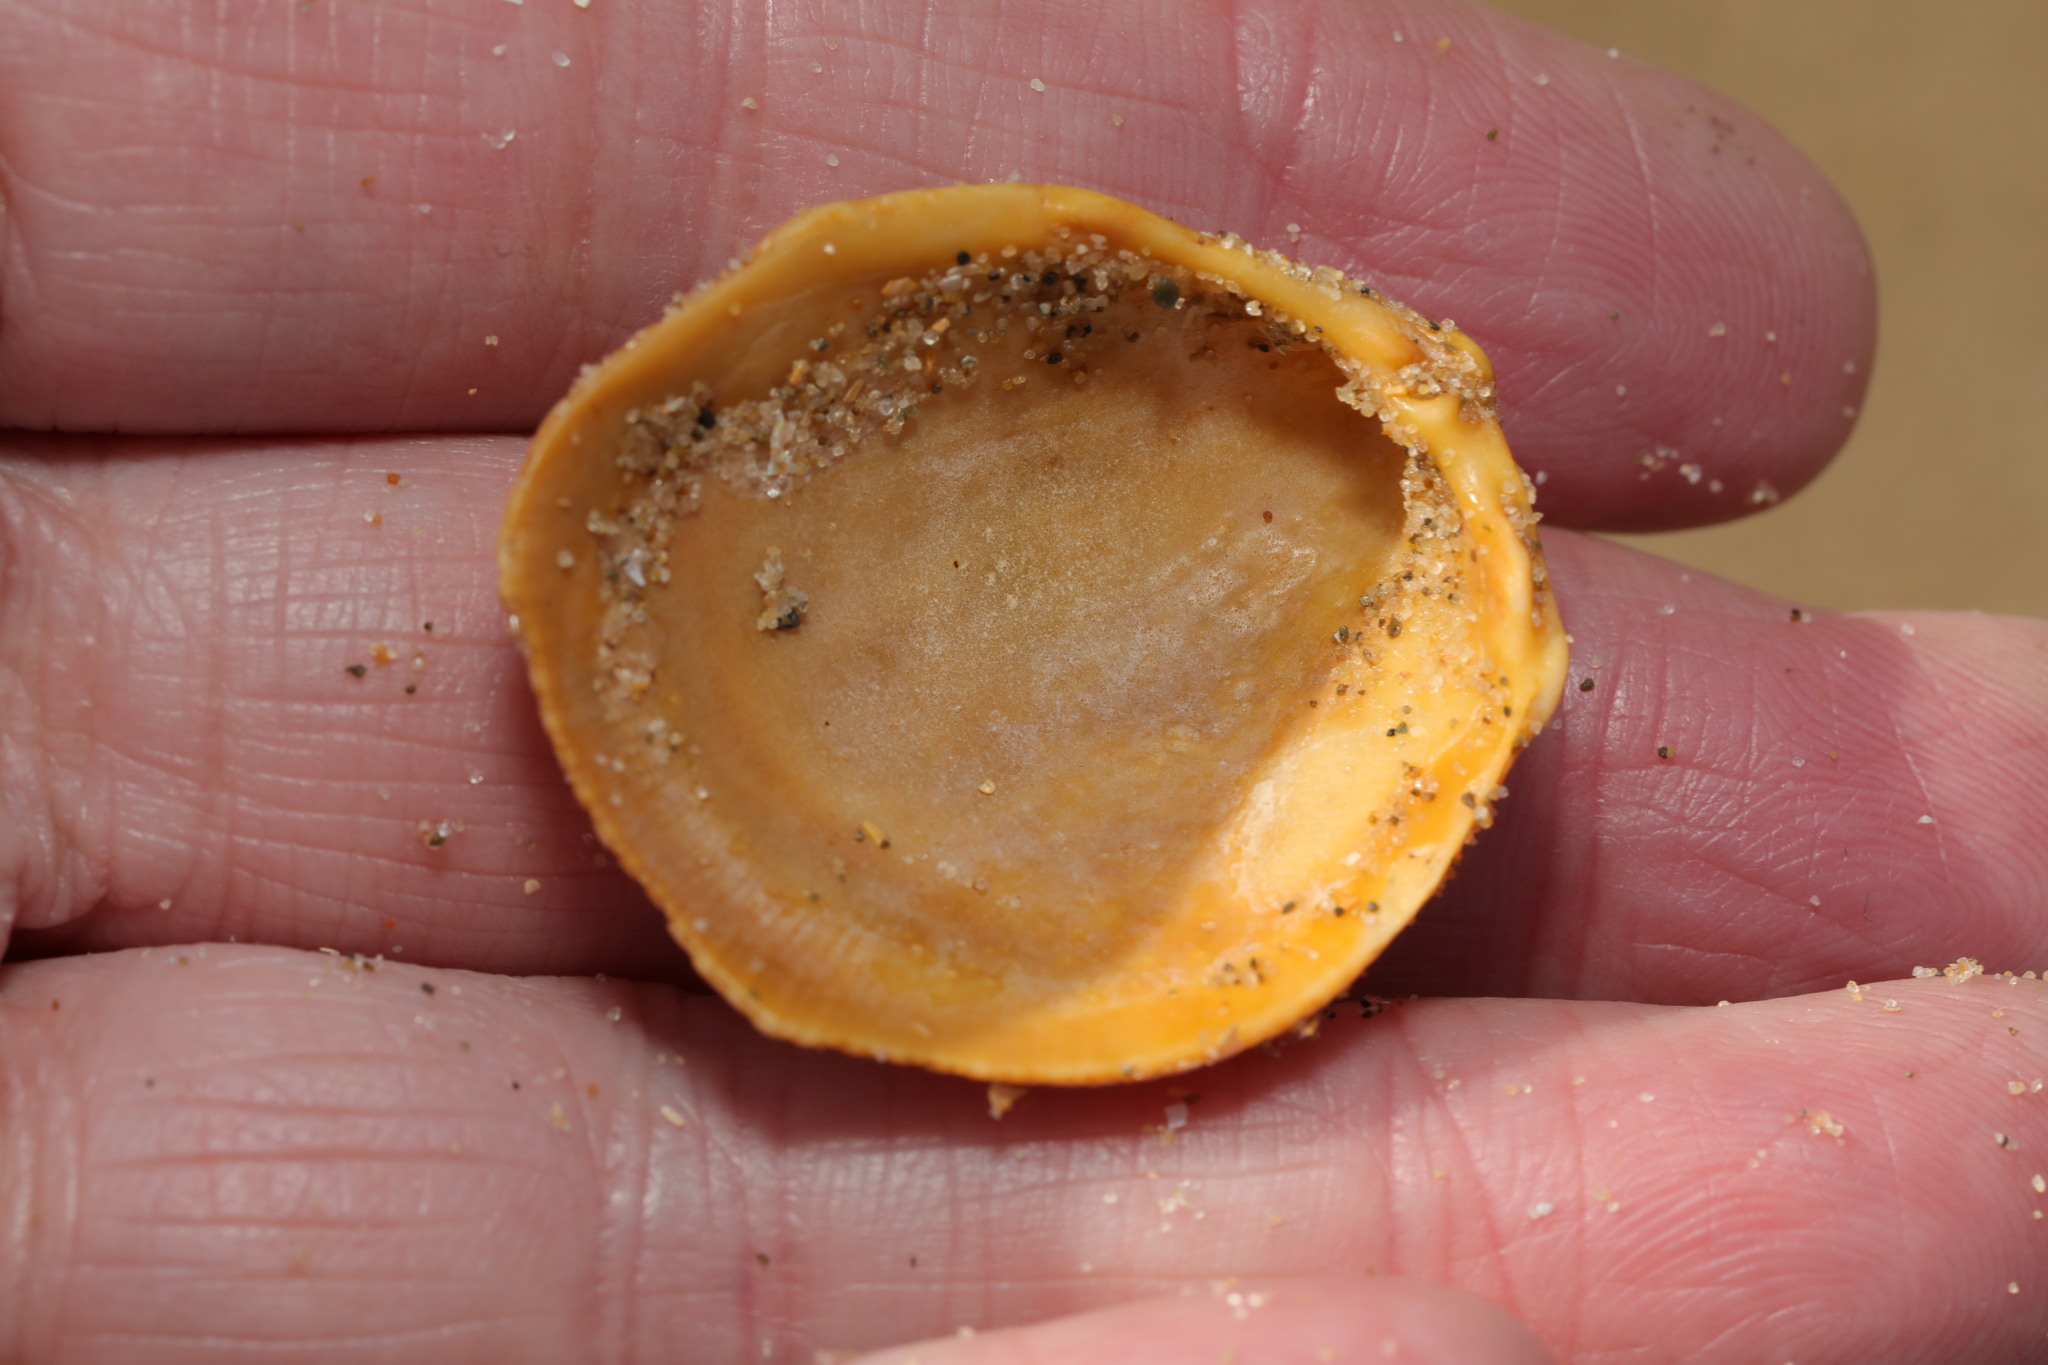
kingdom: Animalia
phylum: Mollusca
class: Bivalvia
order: Cardiida
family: Cardiidae
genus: Laevicardium
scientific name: Laevicardium crassum
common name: Norway cockle
